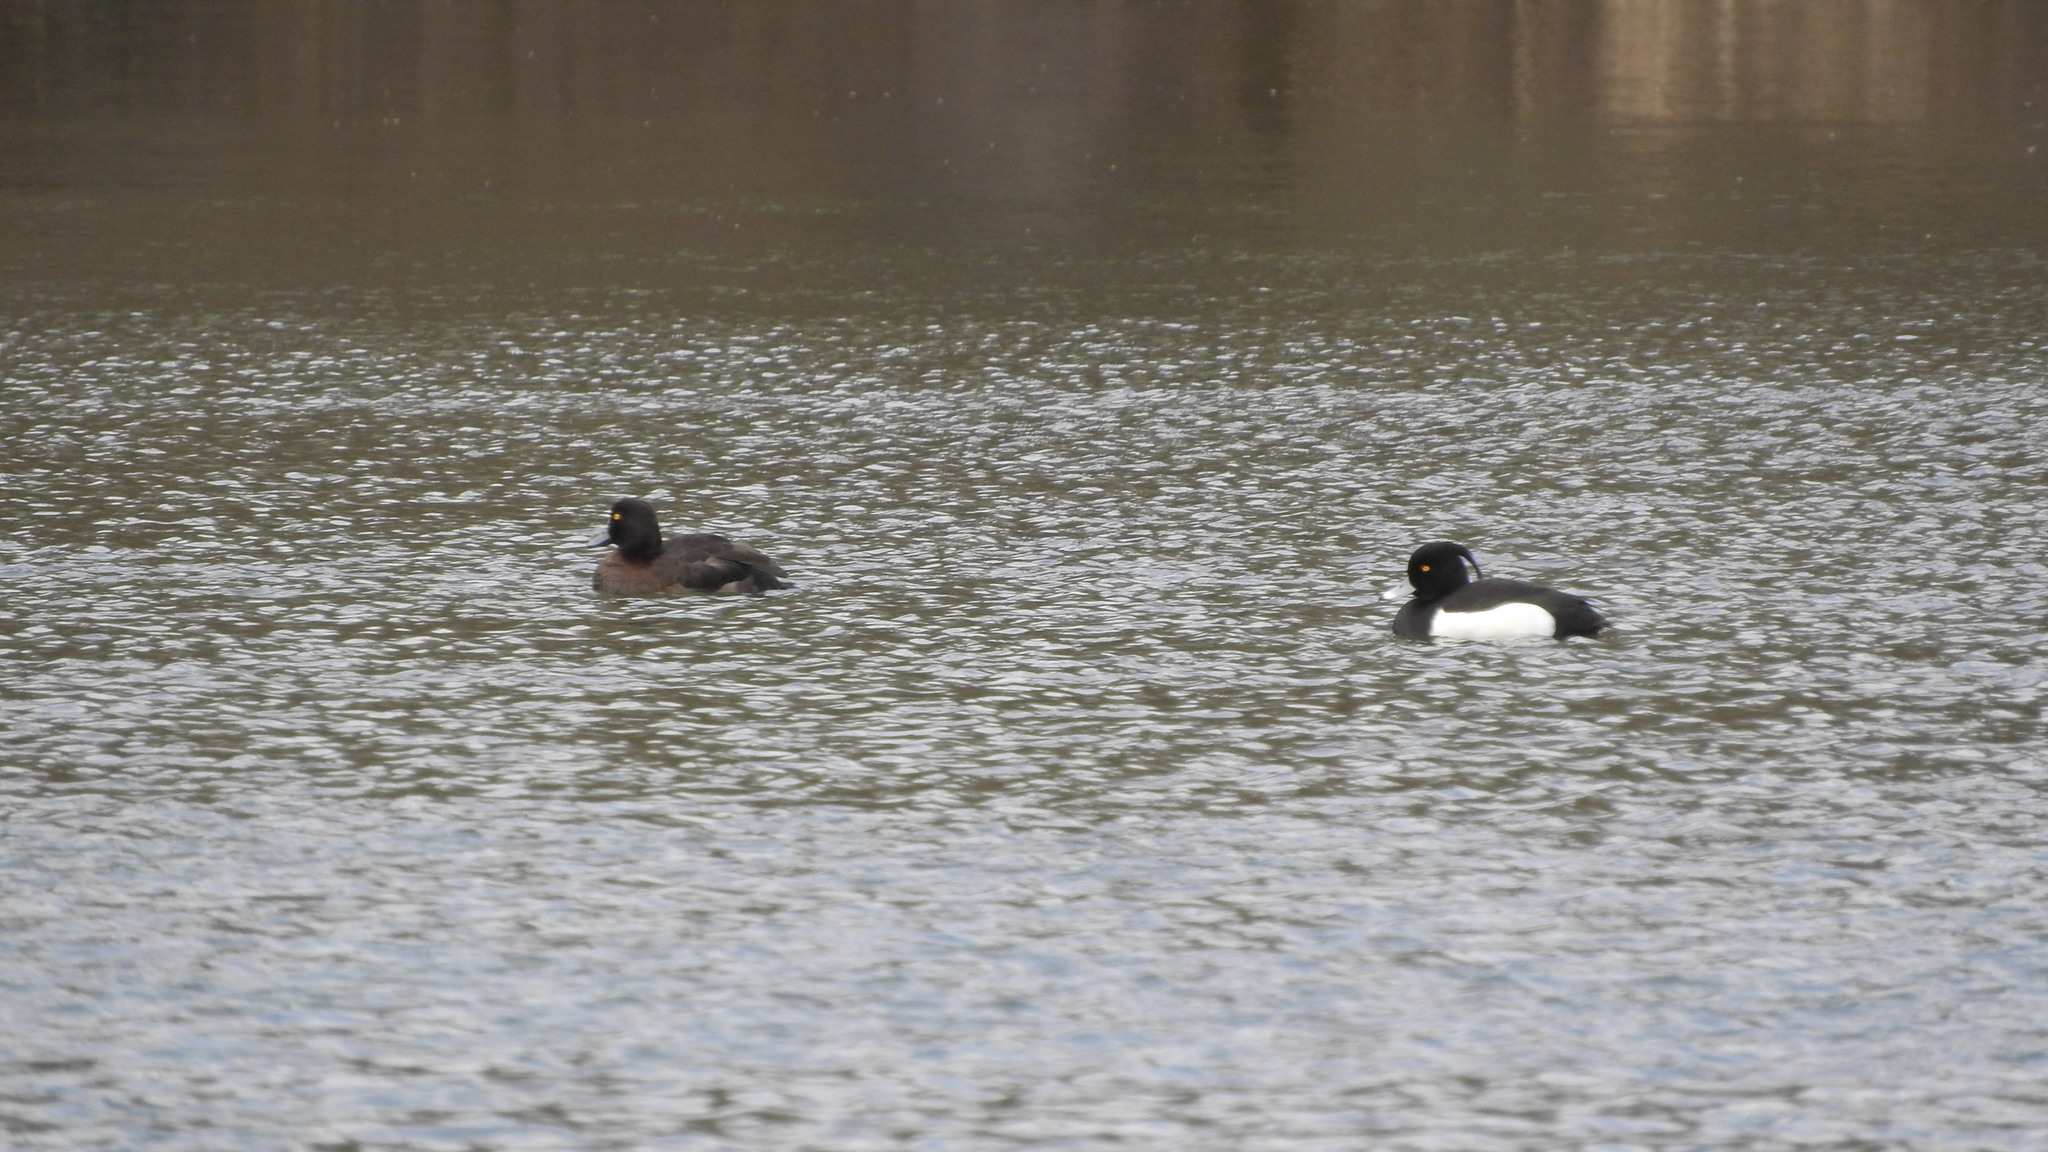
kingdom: Animalia
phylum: Chordata
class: Aves
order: Anseriformes
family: Anatidae
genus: Aythya
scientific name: Aythya fuligula
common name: Tufted duck
